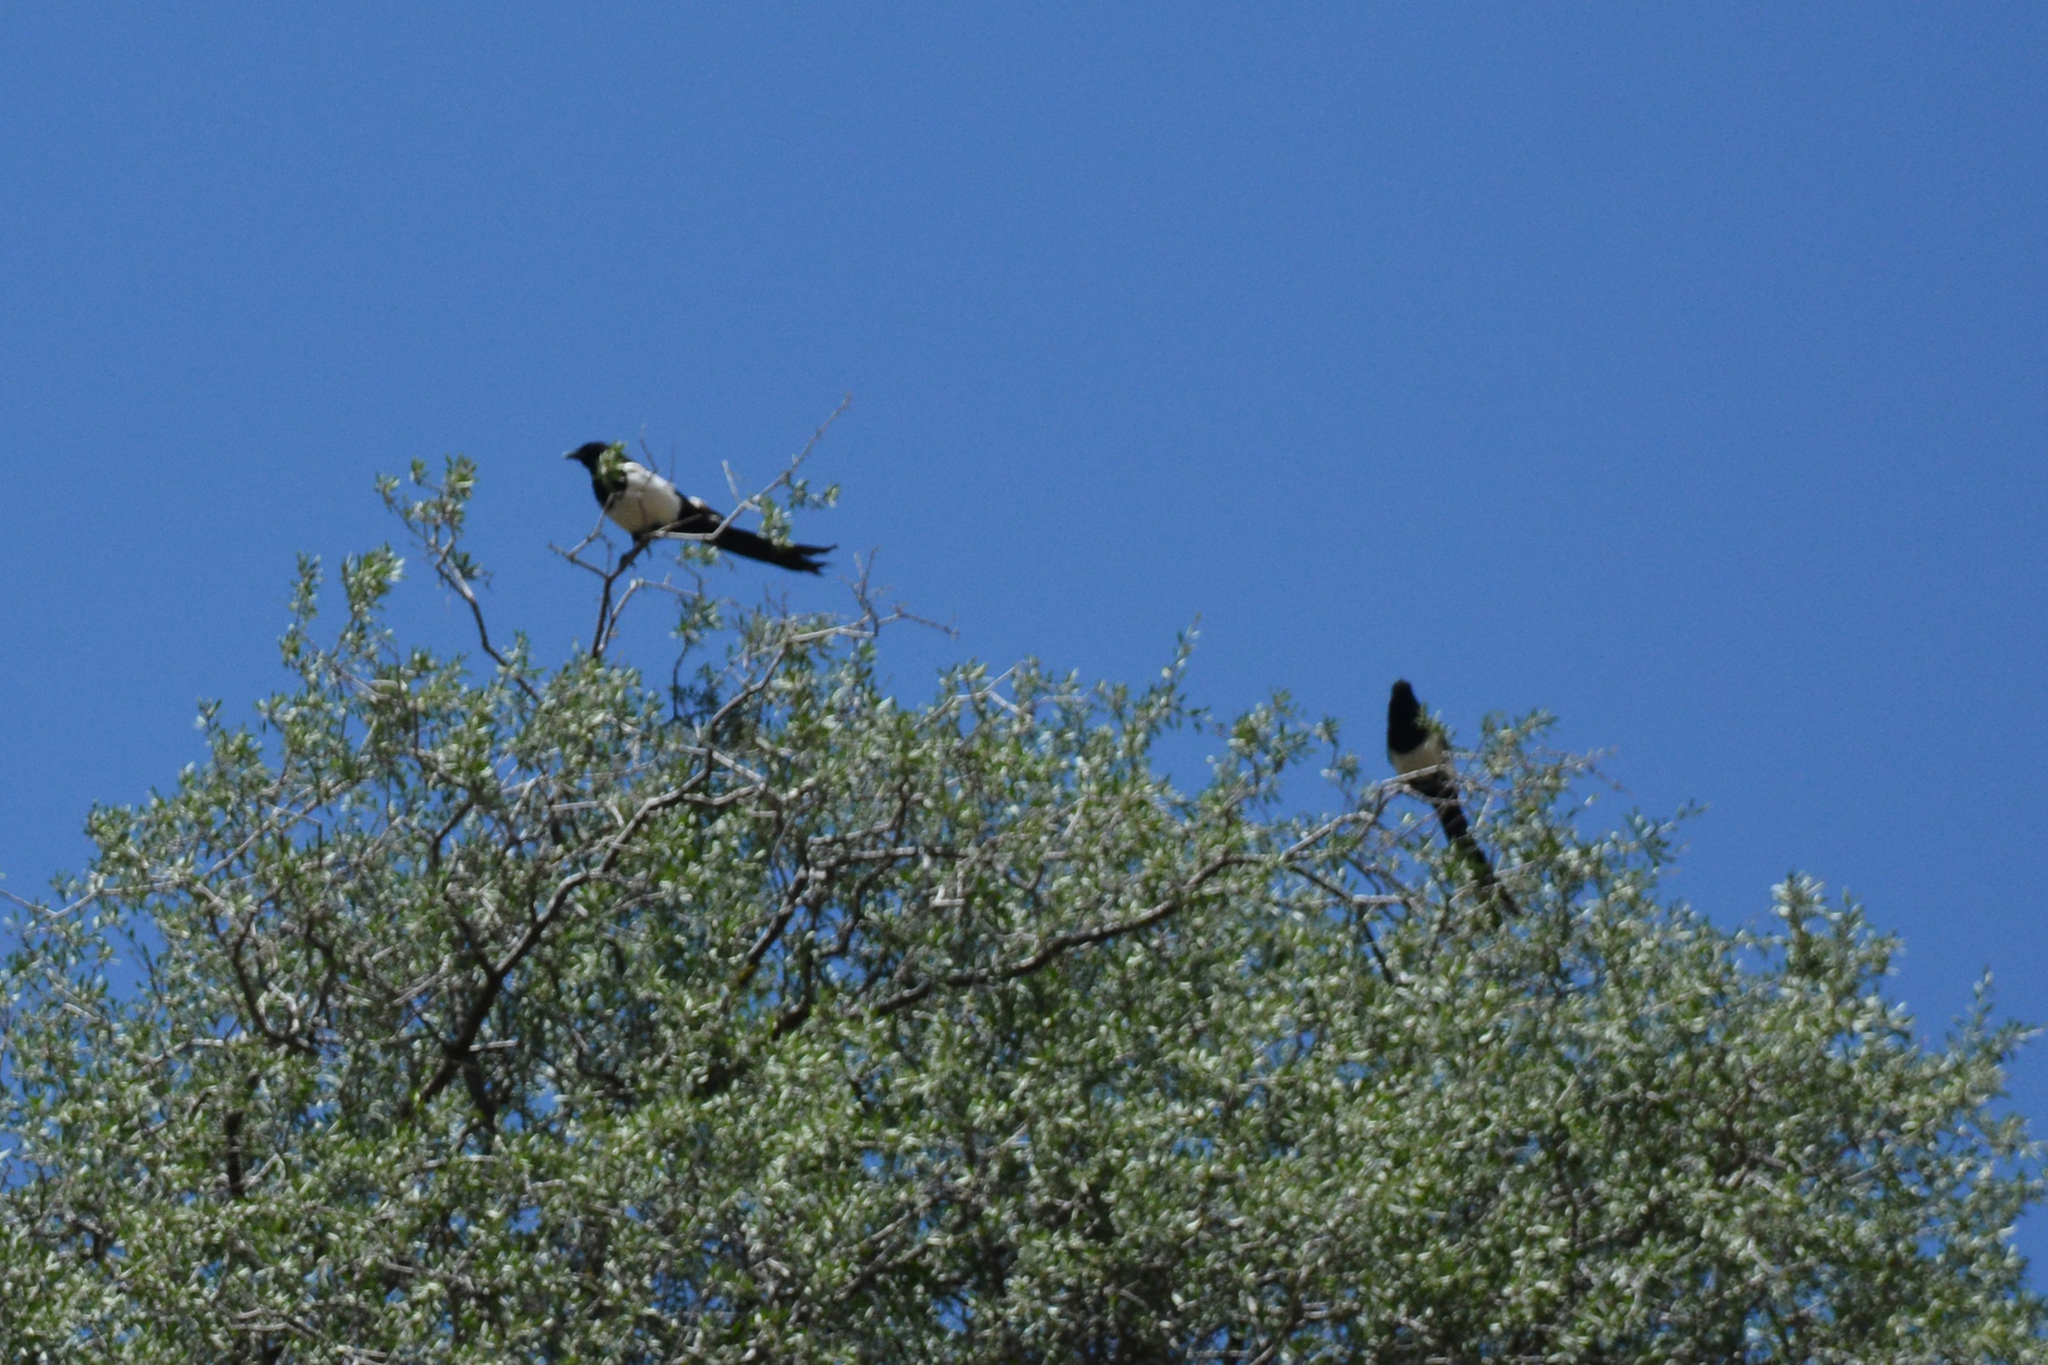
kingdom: Animalia
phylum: Chordata
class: Aves
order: Passeriformes
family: Corvidae
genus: Pica
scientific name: Pica pica
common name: Eurasian magpie
